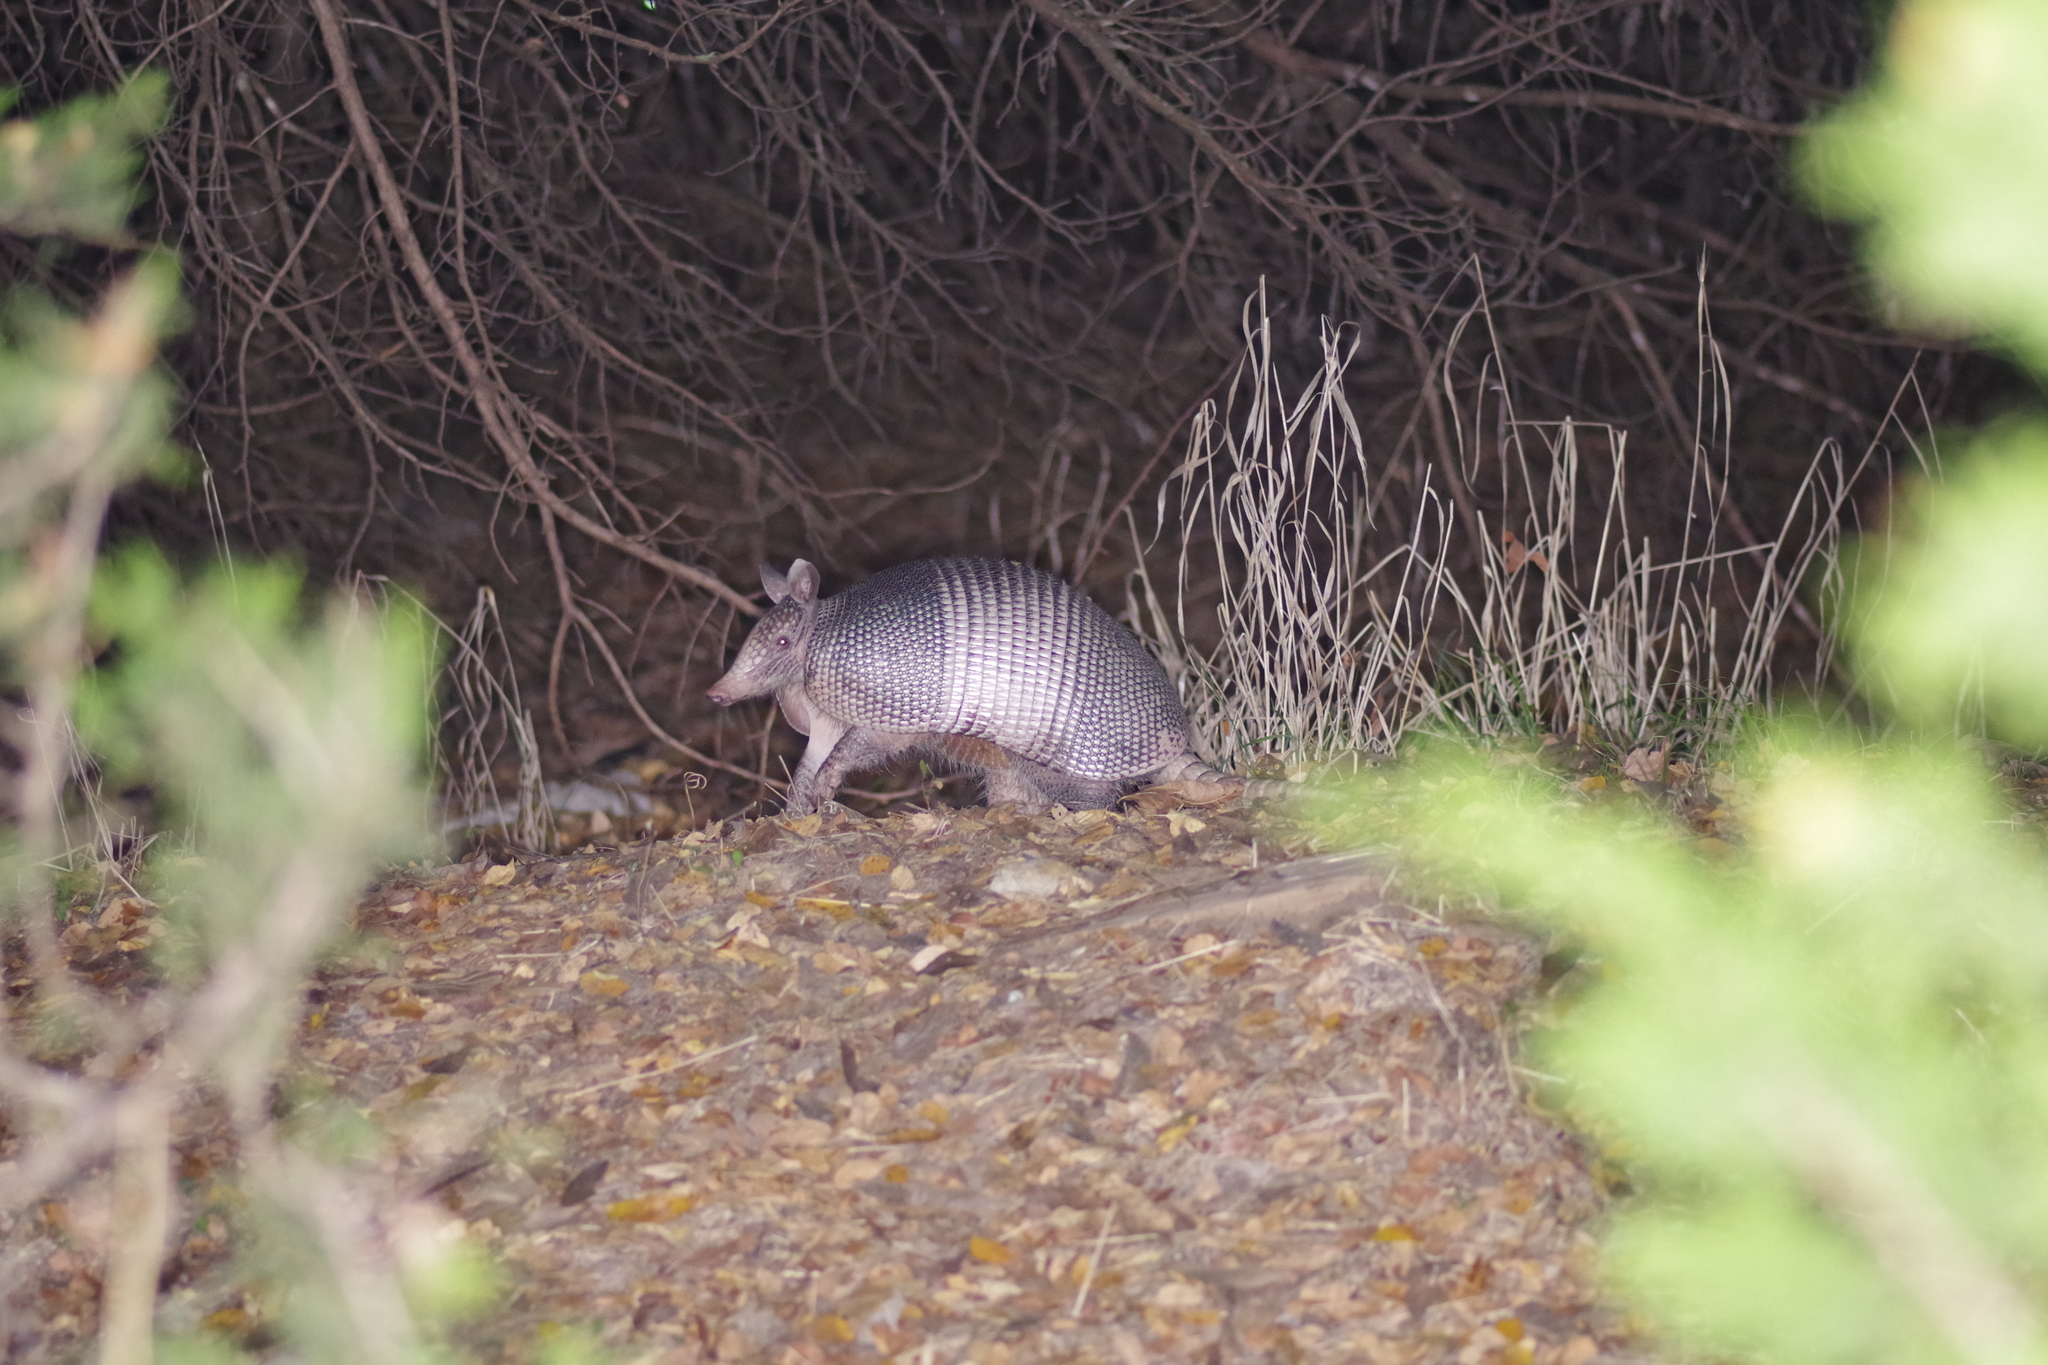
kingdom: Animalia
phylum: Chordata
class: Mammalia
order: Cingulata
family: Dasypodidae
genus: Dasypus
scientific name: Dasypus novemcinctus
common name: Nine-banded armadillo
